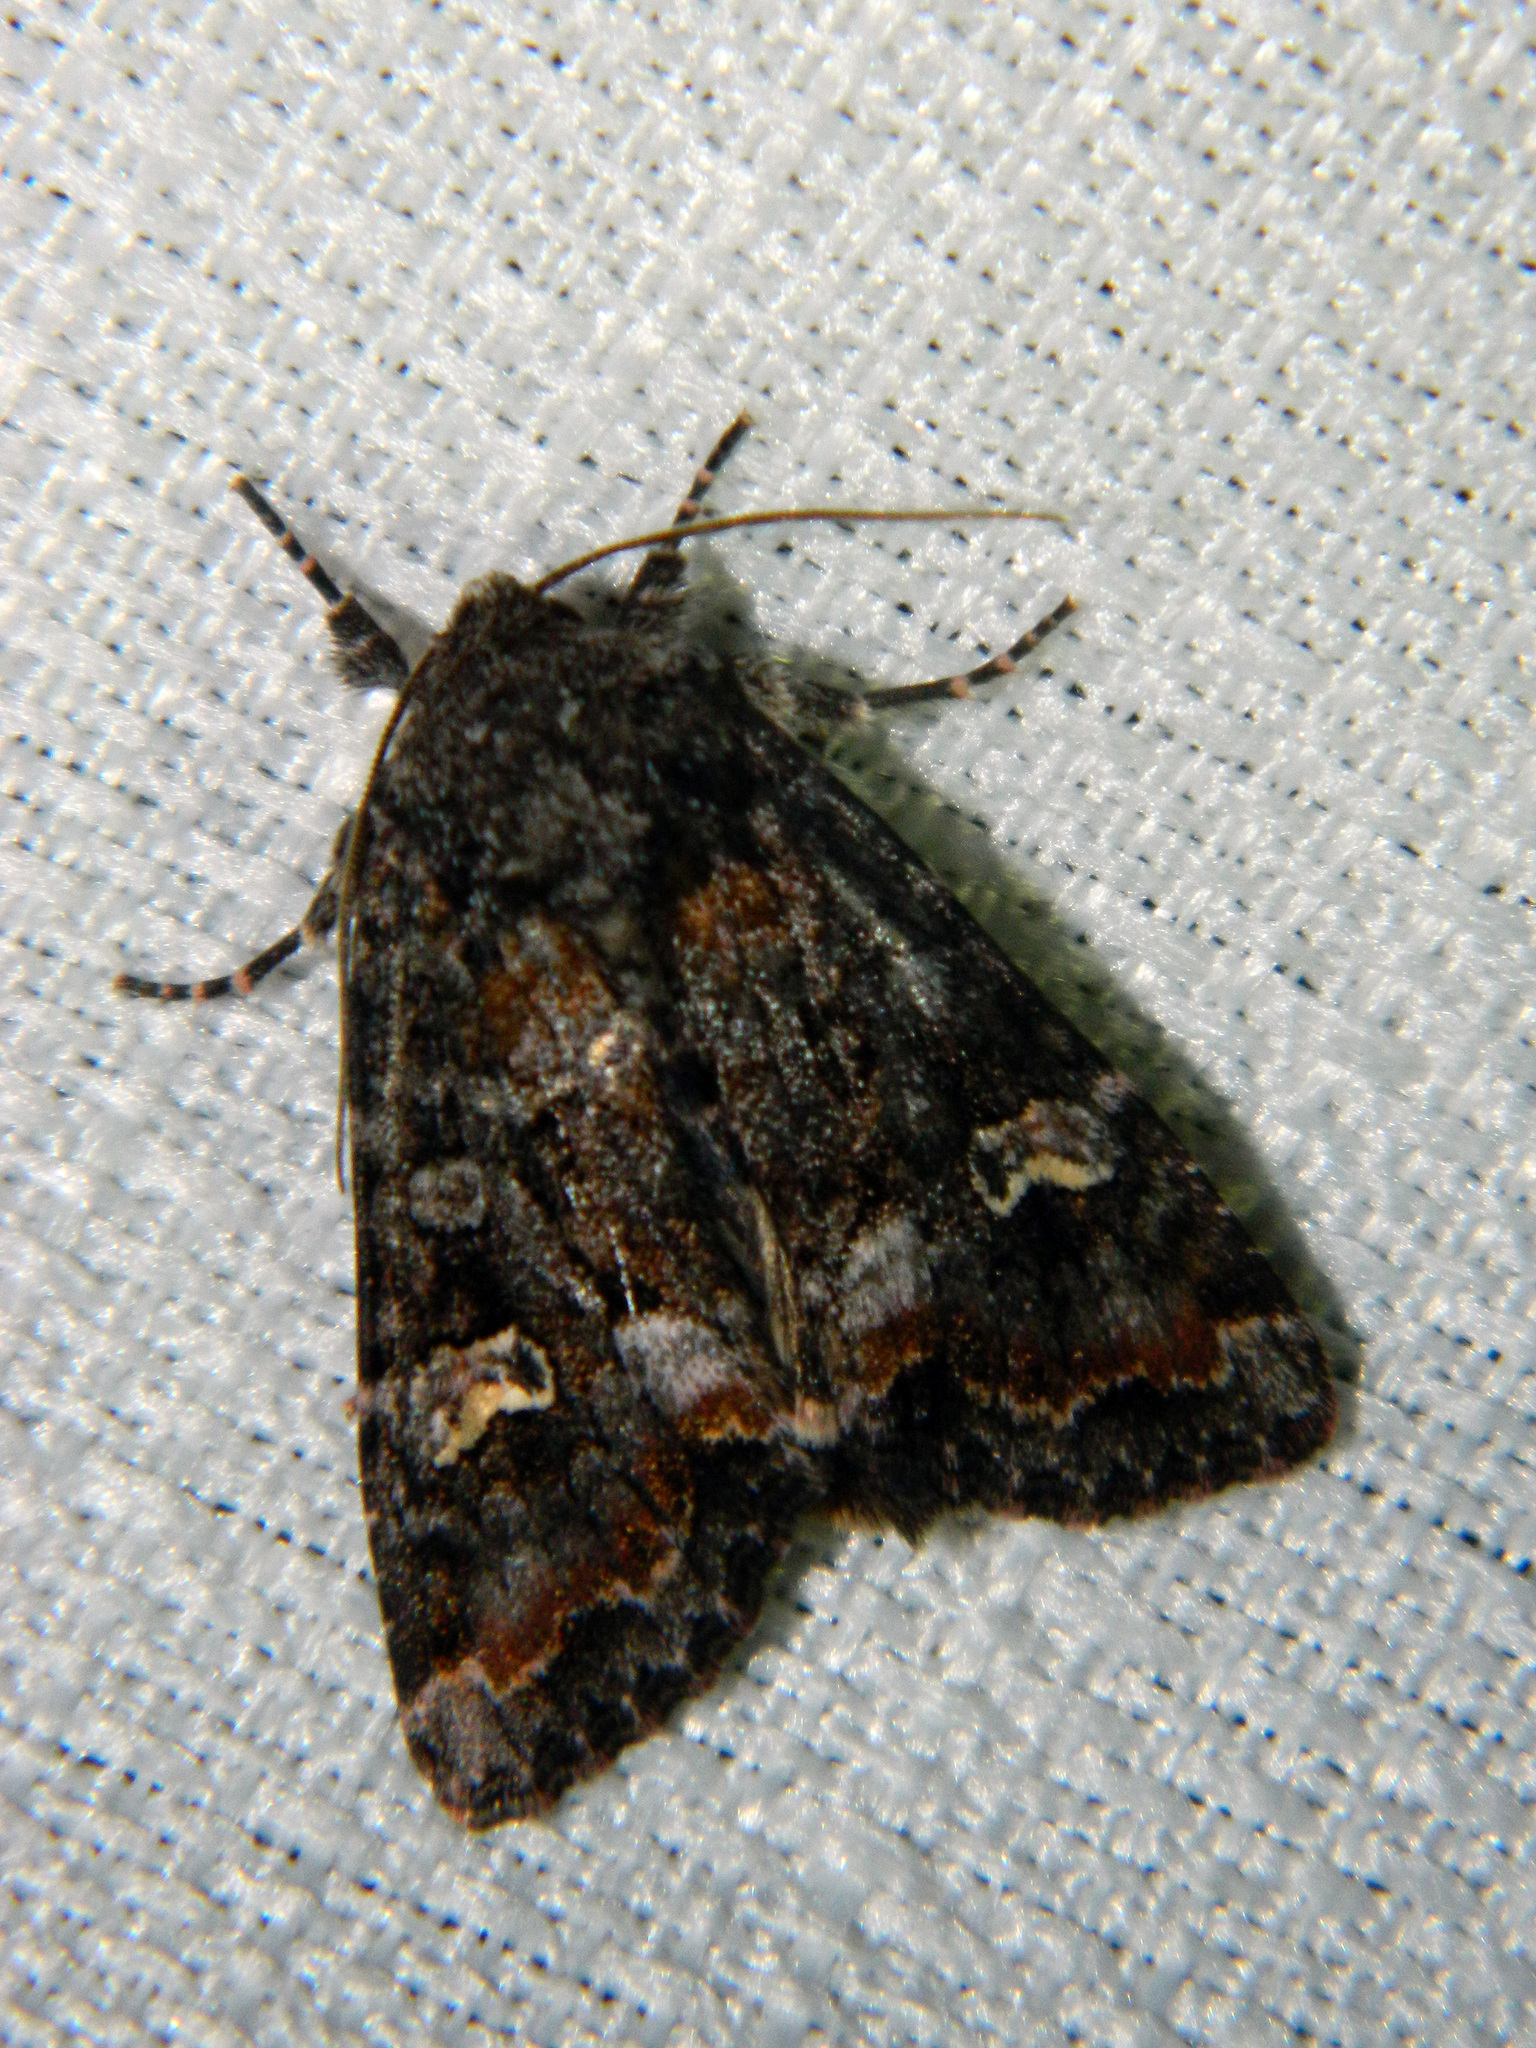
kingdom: Animalia
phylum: Arthropoda
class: Insecta
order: Lepidoptera
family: Noctuidae
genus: Spiramater
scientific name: Spiramater lutra
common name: Otter spiramater moth
